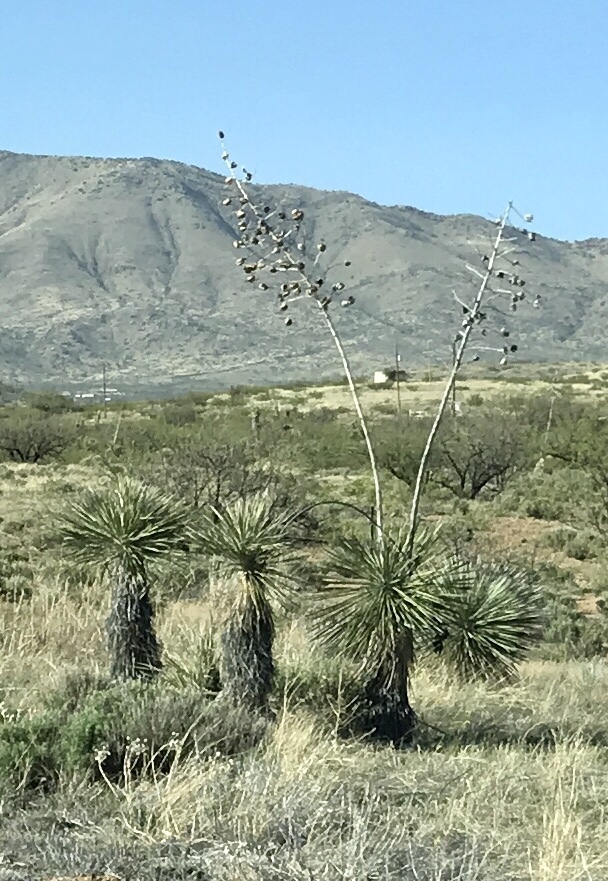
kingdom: Plantae
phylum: Tracheophyta
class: Liliopsida
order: Asparagales
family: Asparagaceae
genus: Yucca
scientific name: Yucca elata
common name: Palmella
